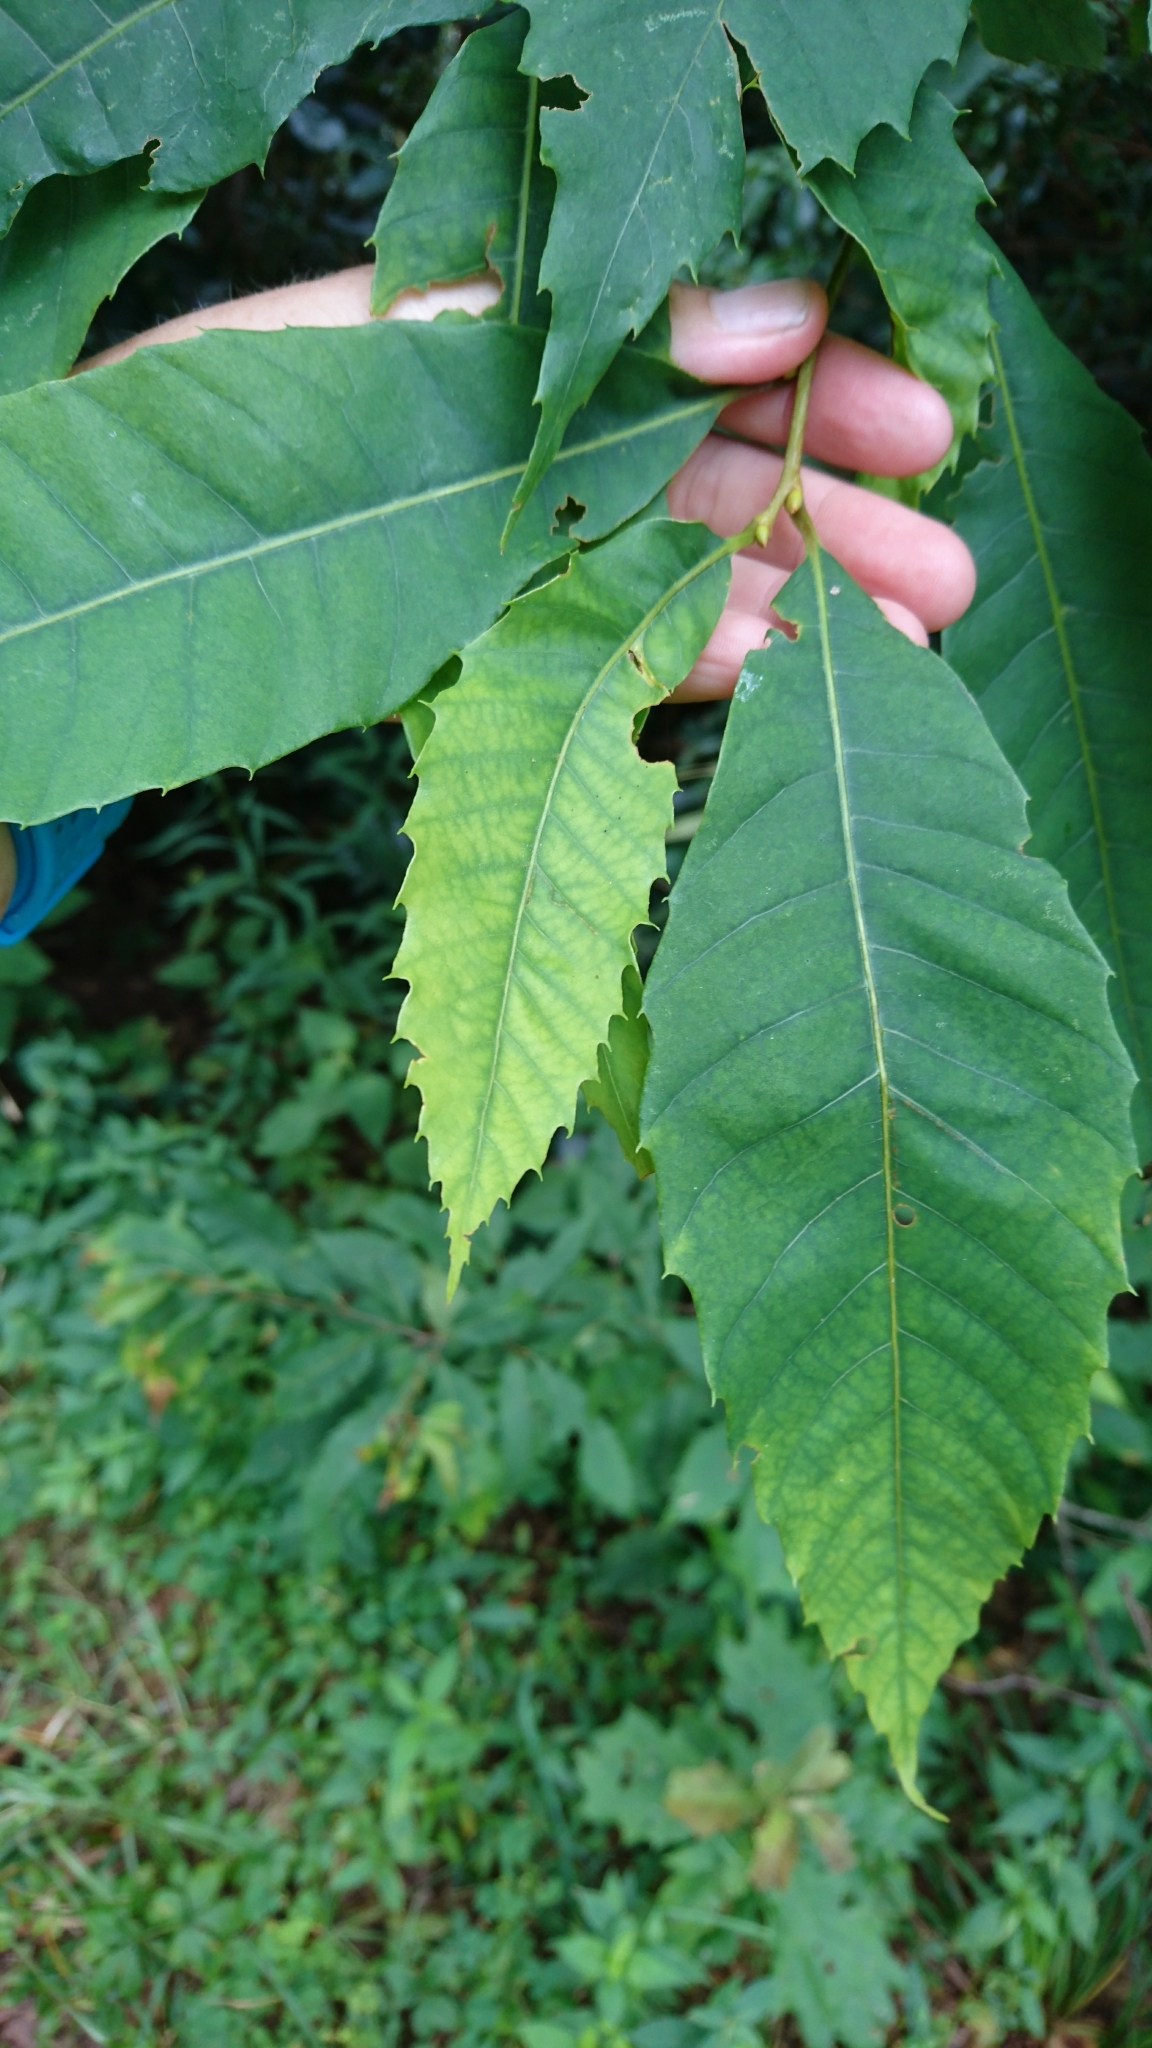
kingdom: Plantae
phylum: Tracheophyta
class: Magnoliopsida
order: Fagales
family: Fagaceae
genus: Castanea
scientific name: Castanea dentata
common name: American chestnut
